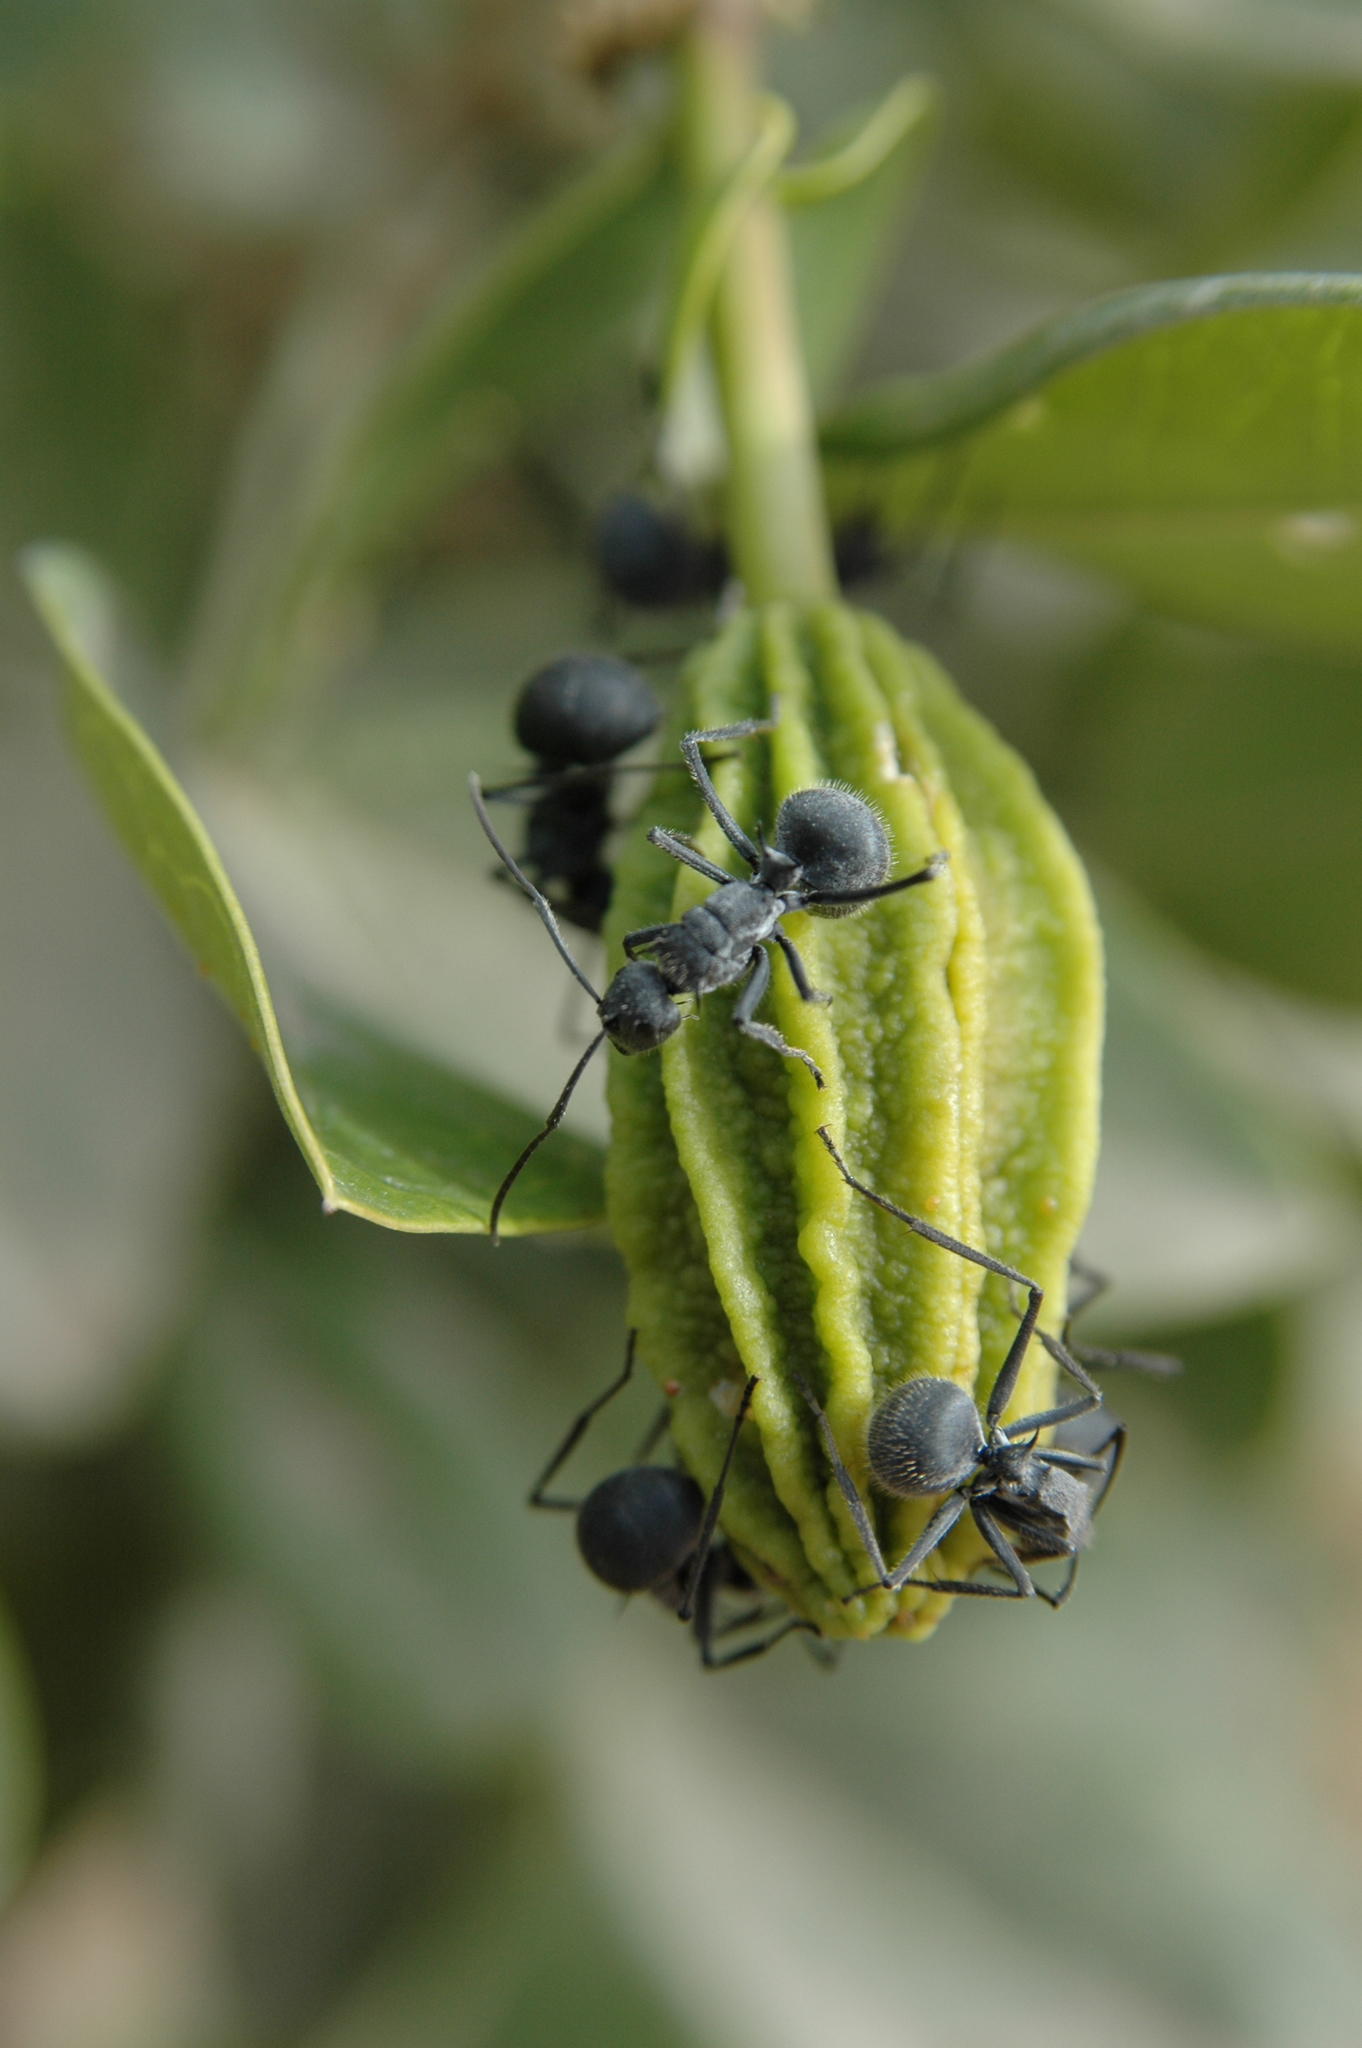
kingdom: Animalia
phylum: Arthropoda
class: Insecta
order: Hymenoptera
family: Formicidae
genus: Polyrhachis
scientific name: Polyrhachis schistacea
